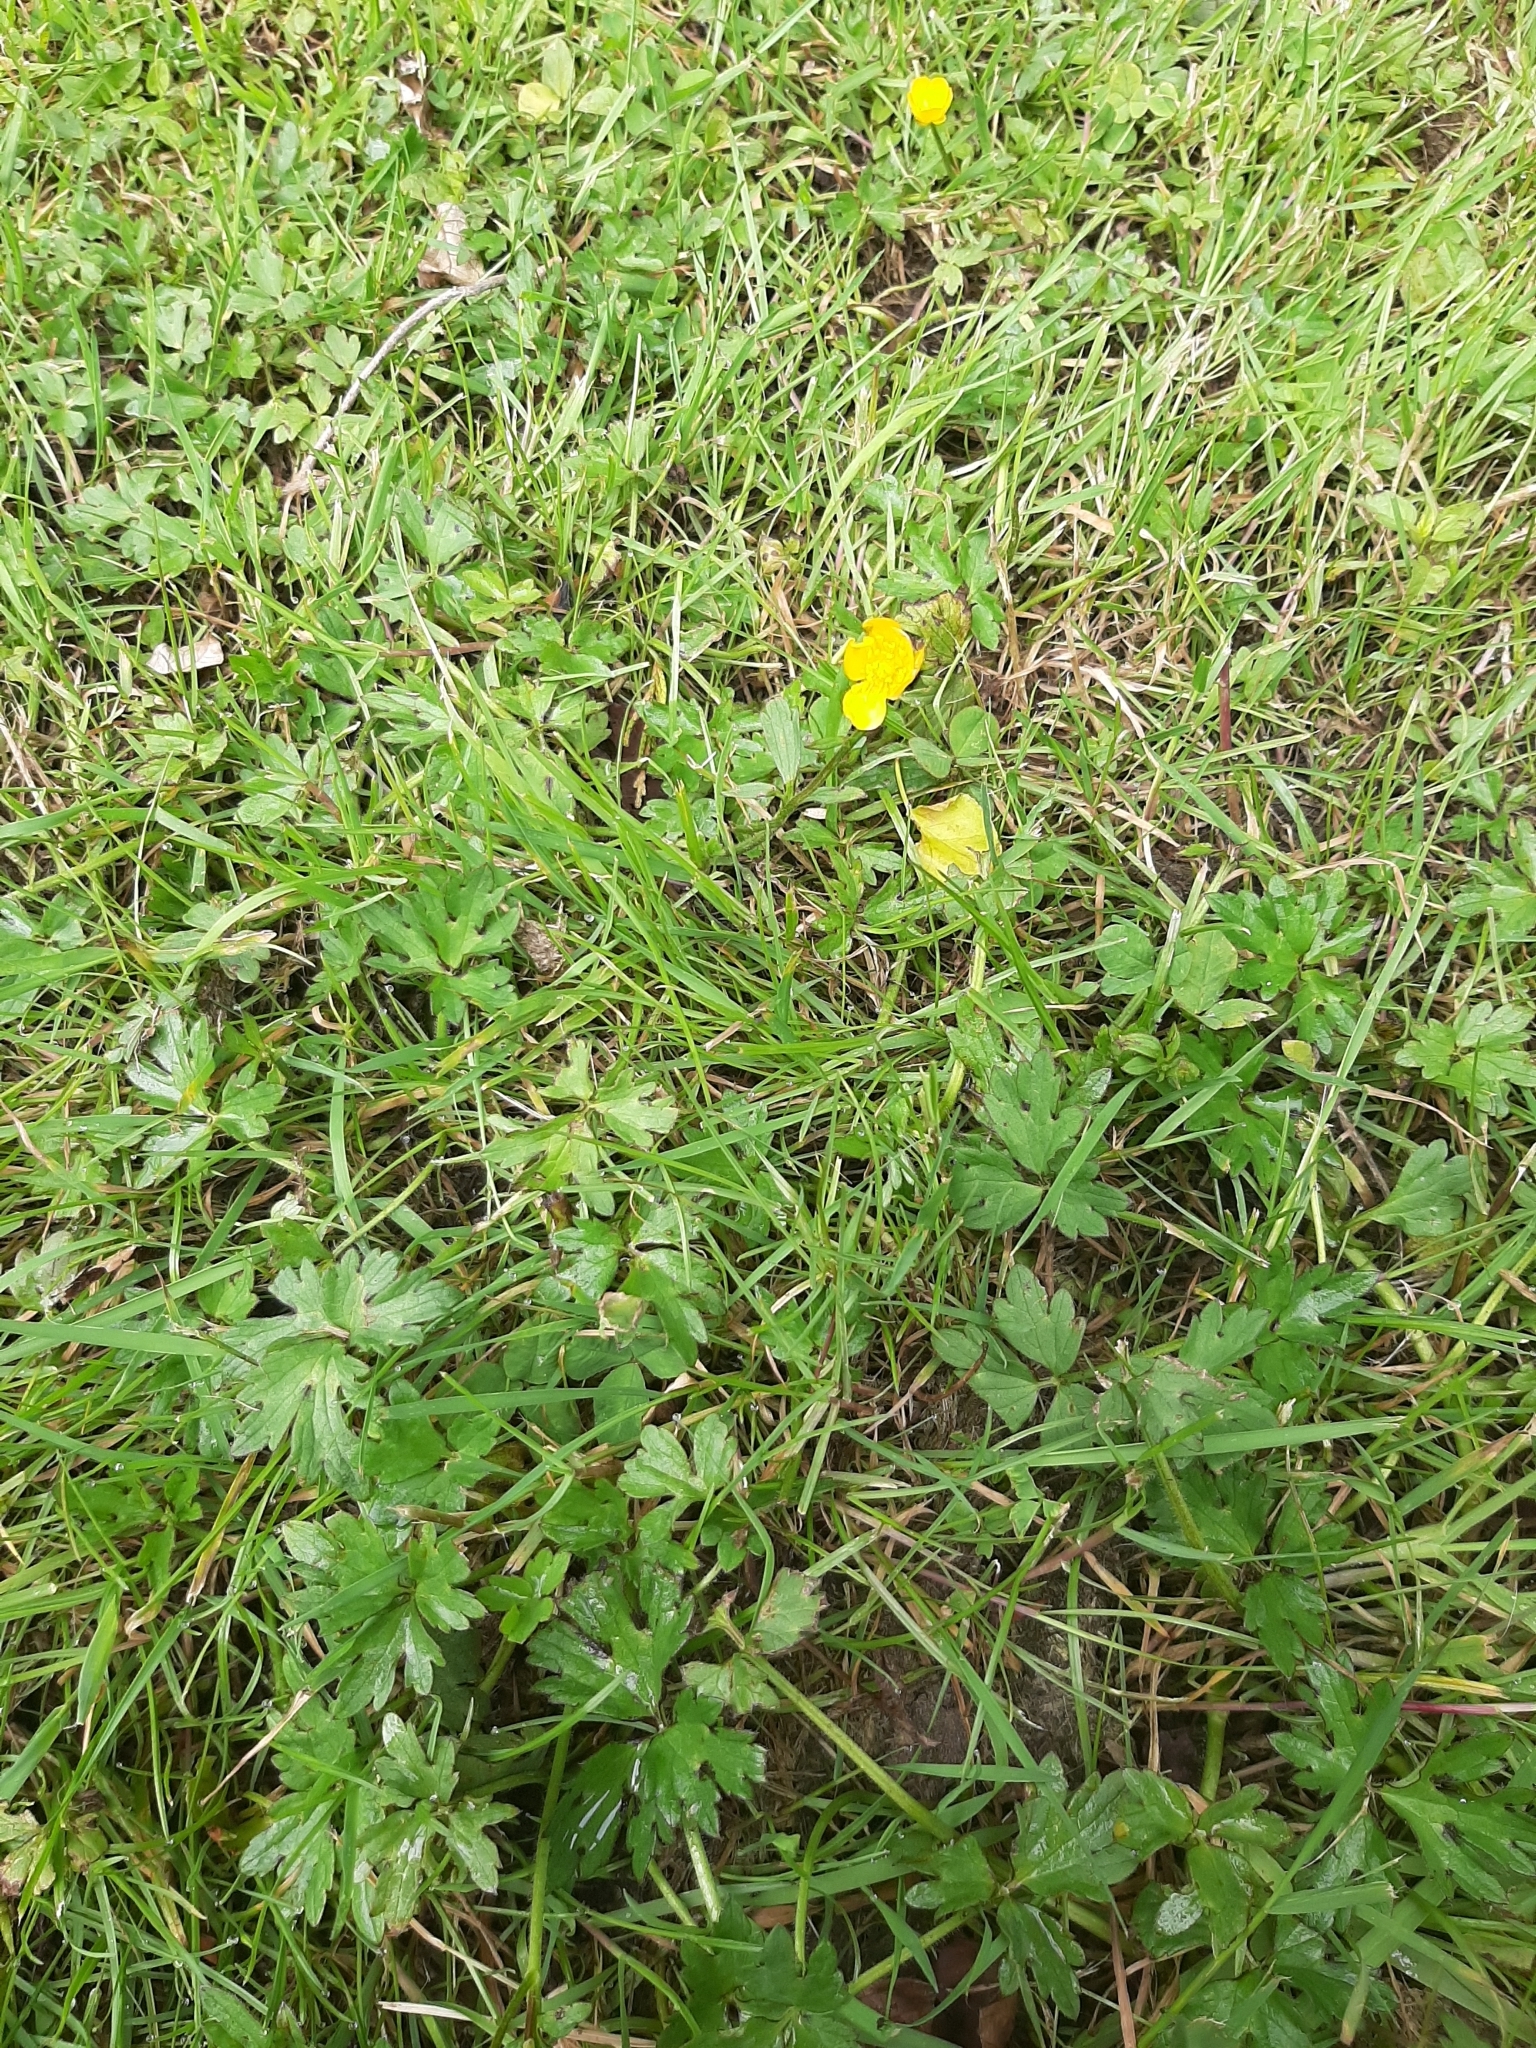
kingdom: Plantae
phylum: Tracheophyta
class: Magnoliopsida
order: Ranunculales
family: Ranunculaceae
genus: Ranunculus
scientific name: Ranunculus repens
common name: Creeping buttercup
